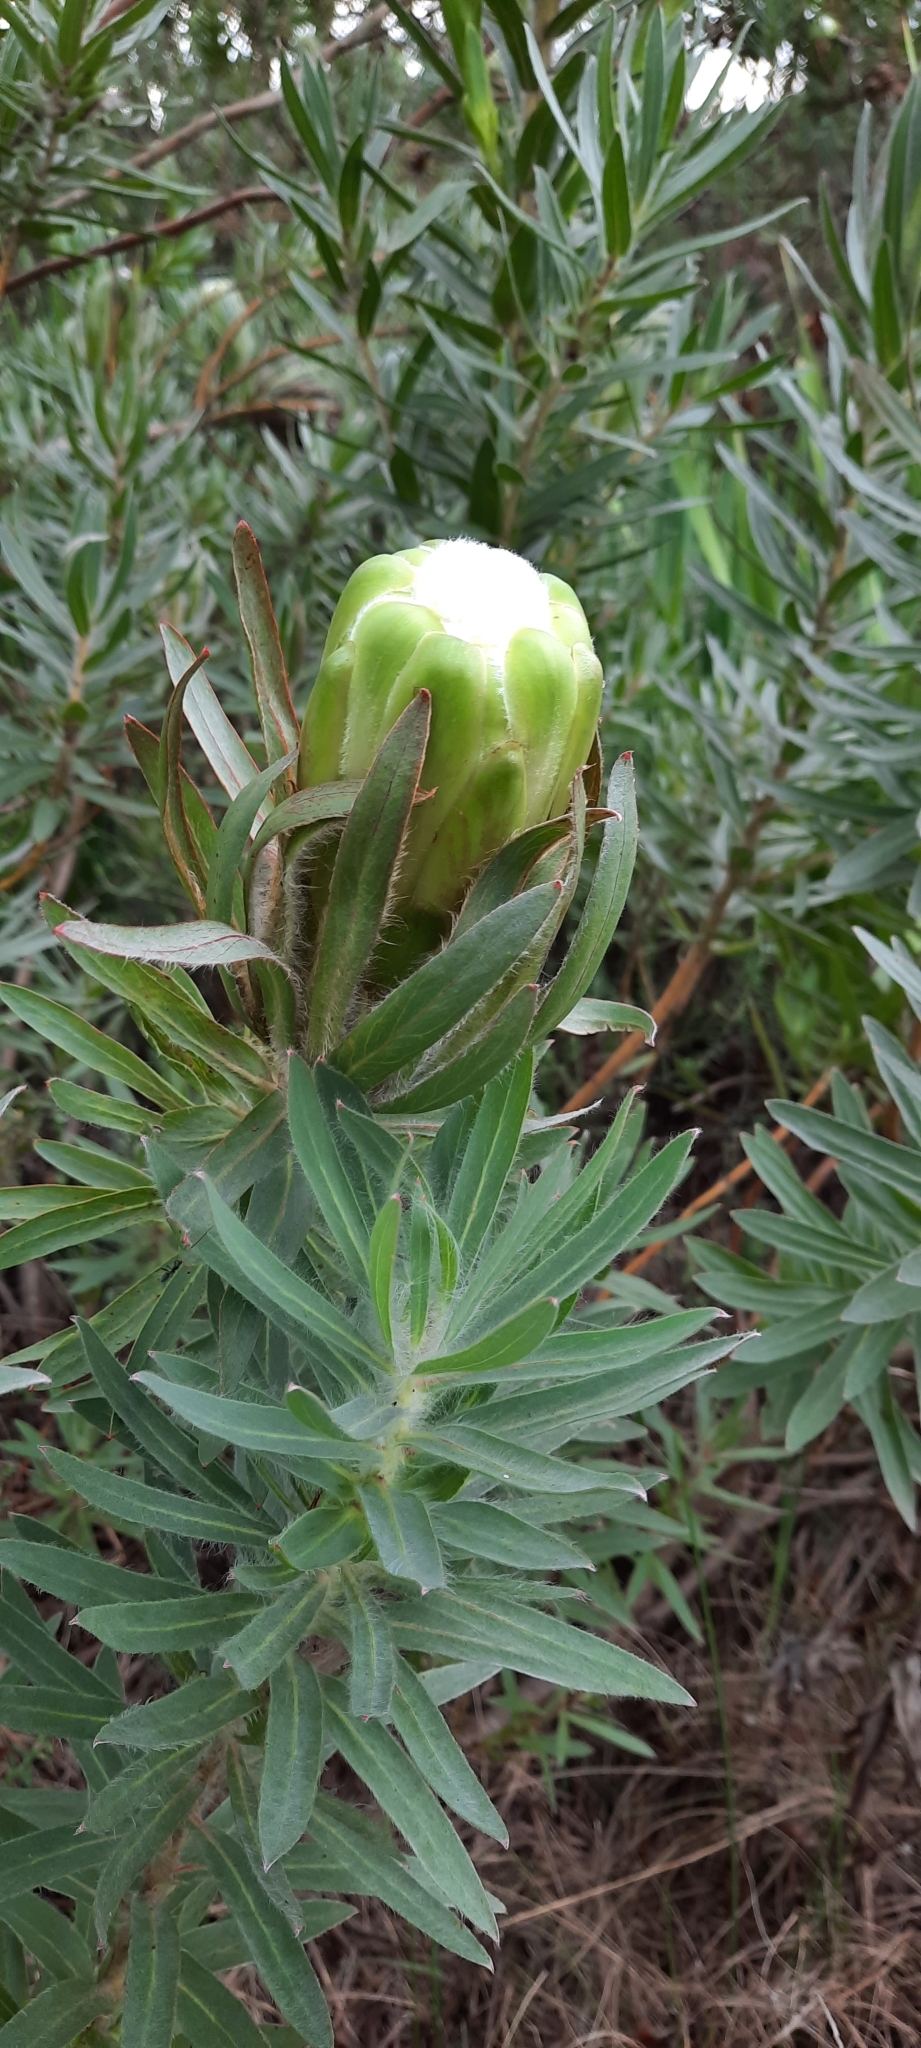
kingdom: Plantae
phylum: Tracheophyta
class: Magnoliopsida
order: Proteales
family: Proteaceae
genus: Protea
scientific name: Protea coronata
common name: Green sugarbush
